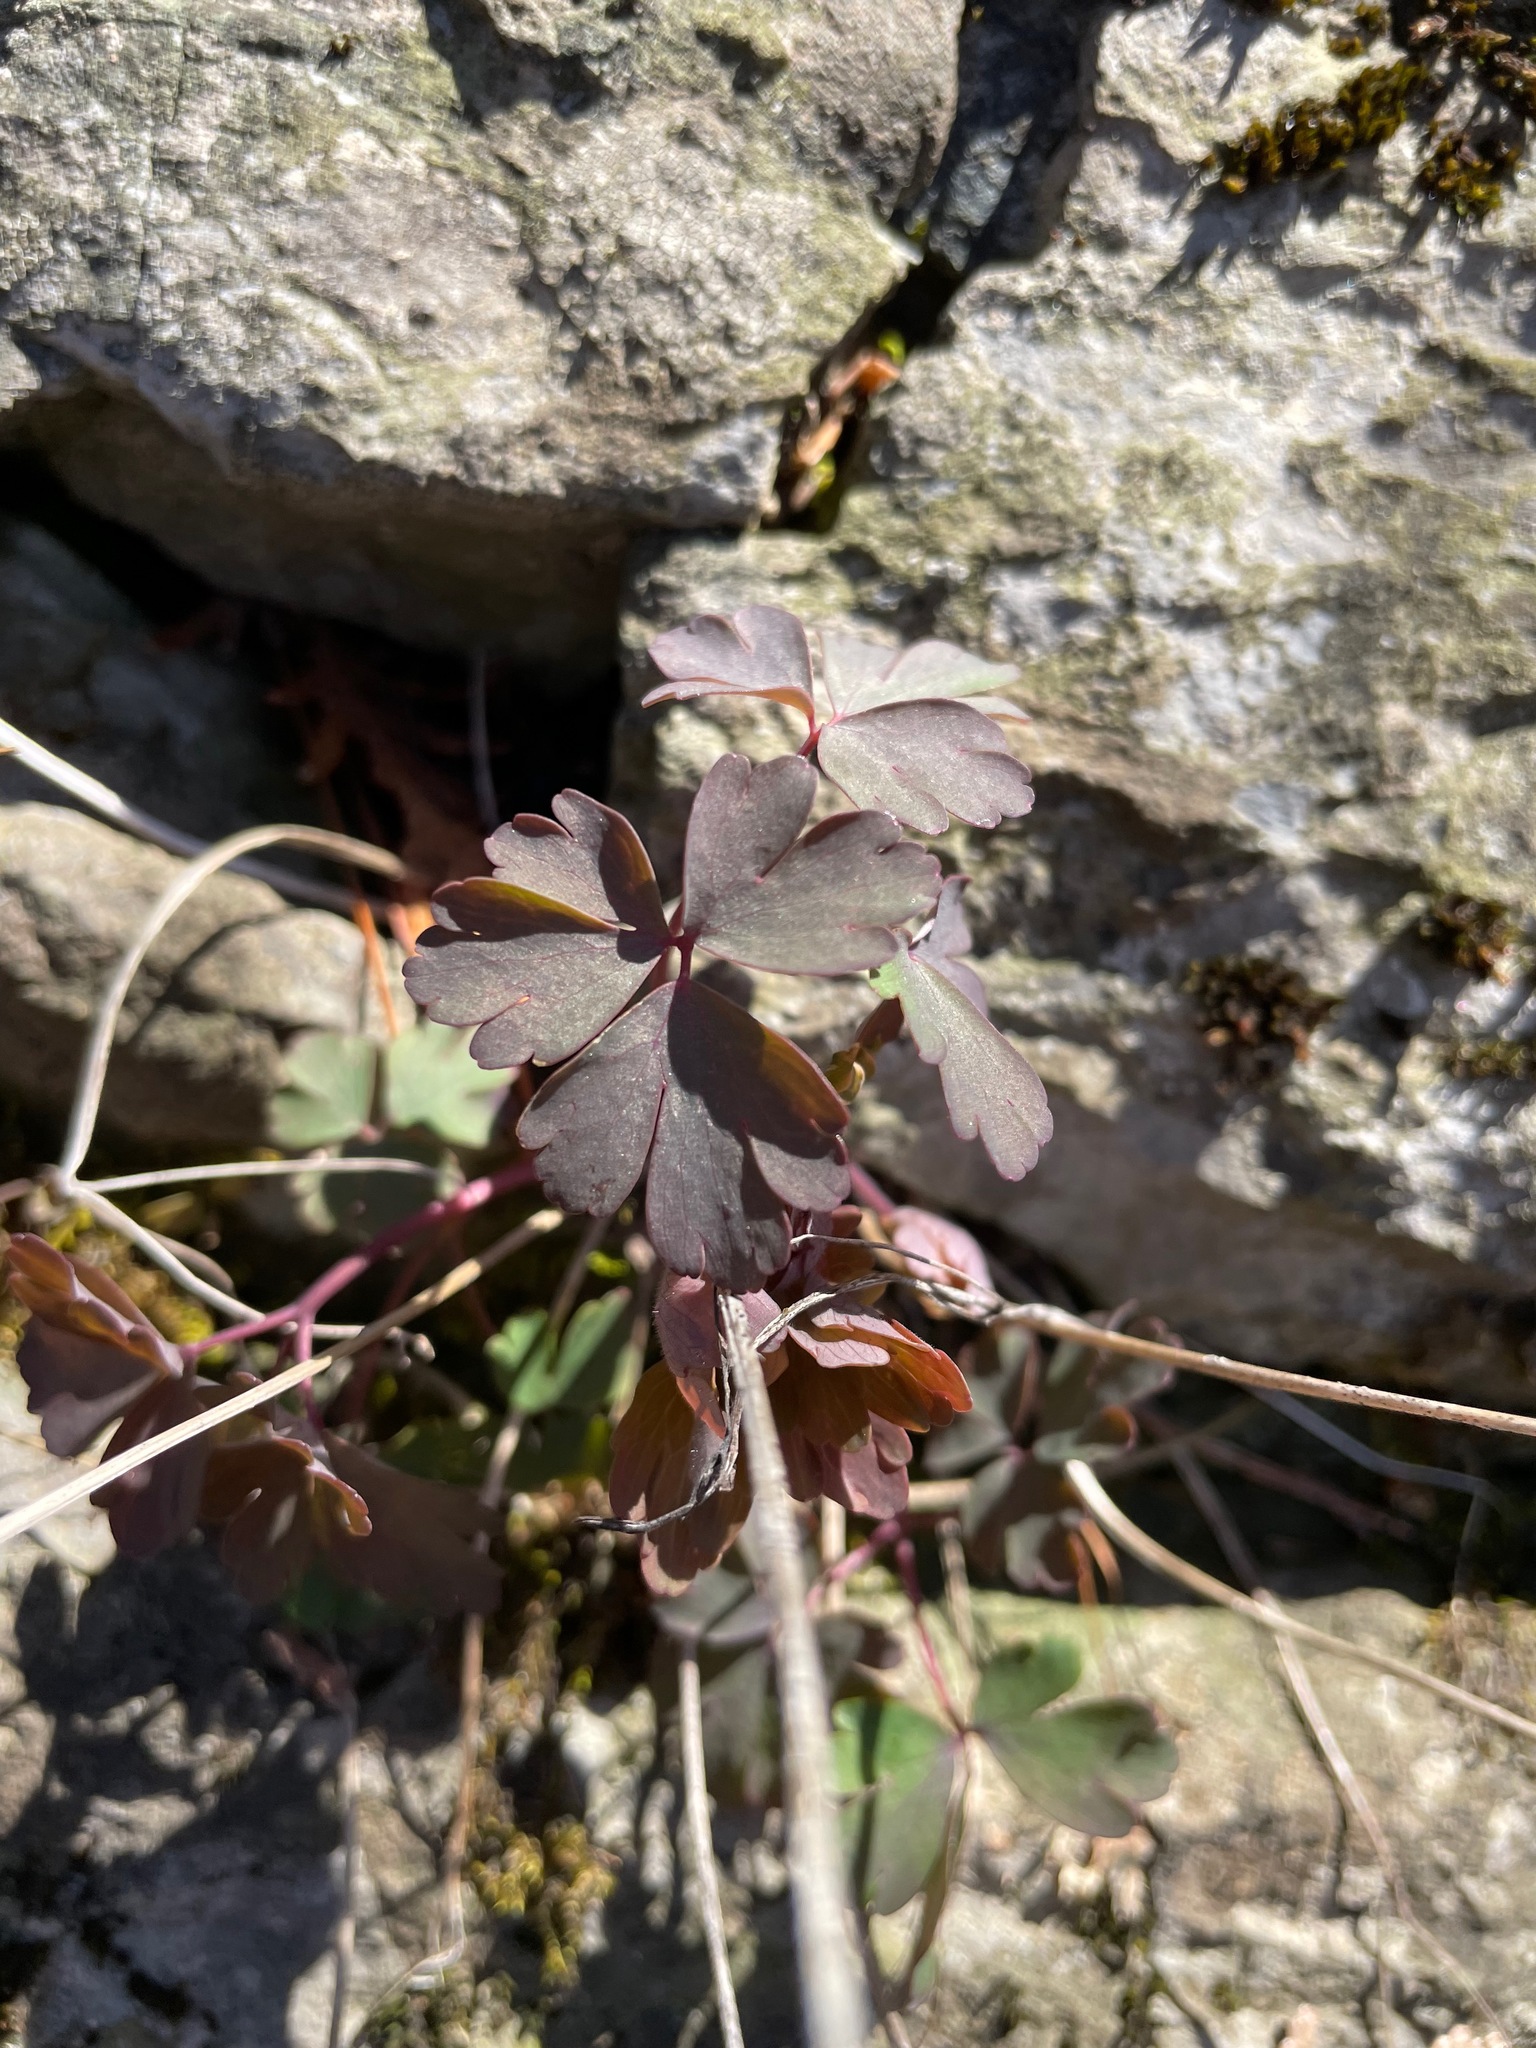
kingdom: Plantae
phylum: Tracheophyta
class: Magnoliopsida
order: Ranunculales
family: Ranunculaceae
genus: Aquilegia
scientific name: Aquilegia canadensis
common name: American columbine
